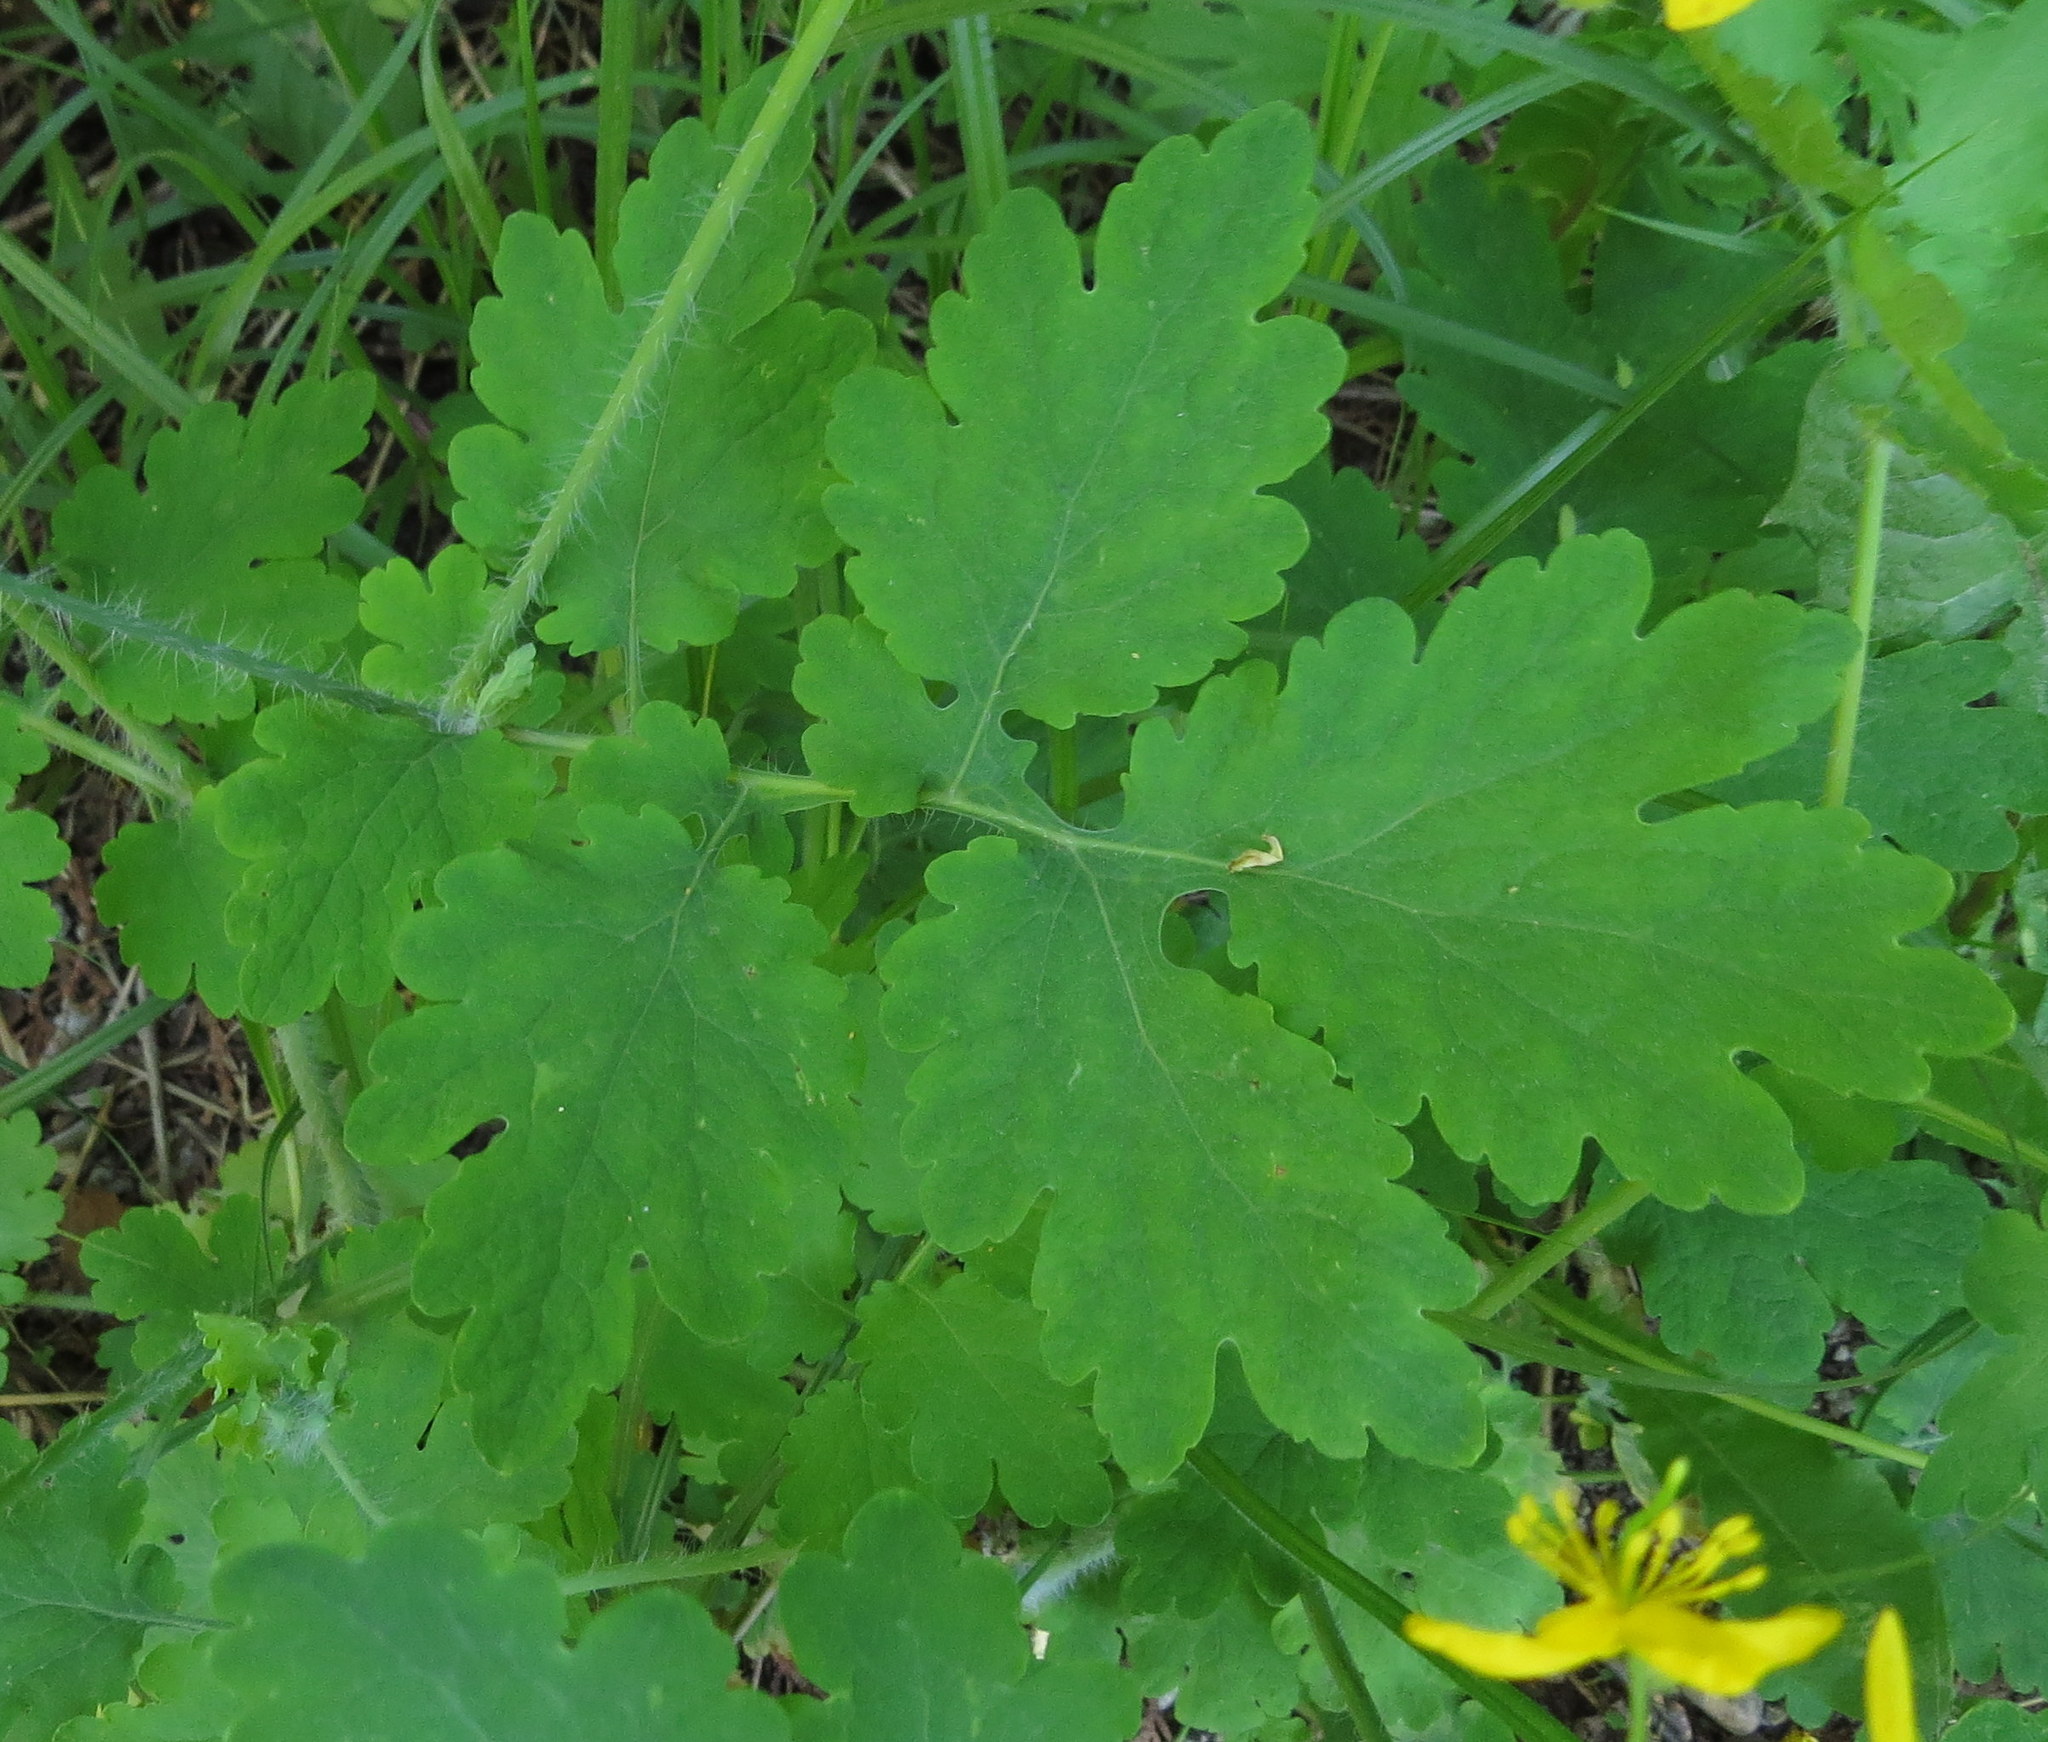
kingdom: Plantae
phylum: Tracheophyta
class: Magnoliopsida
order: Ranunculales
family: Papaveraceae
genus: Chelidonium
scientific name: Chelidonium majus
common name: Greater celandine
